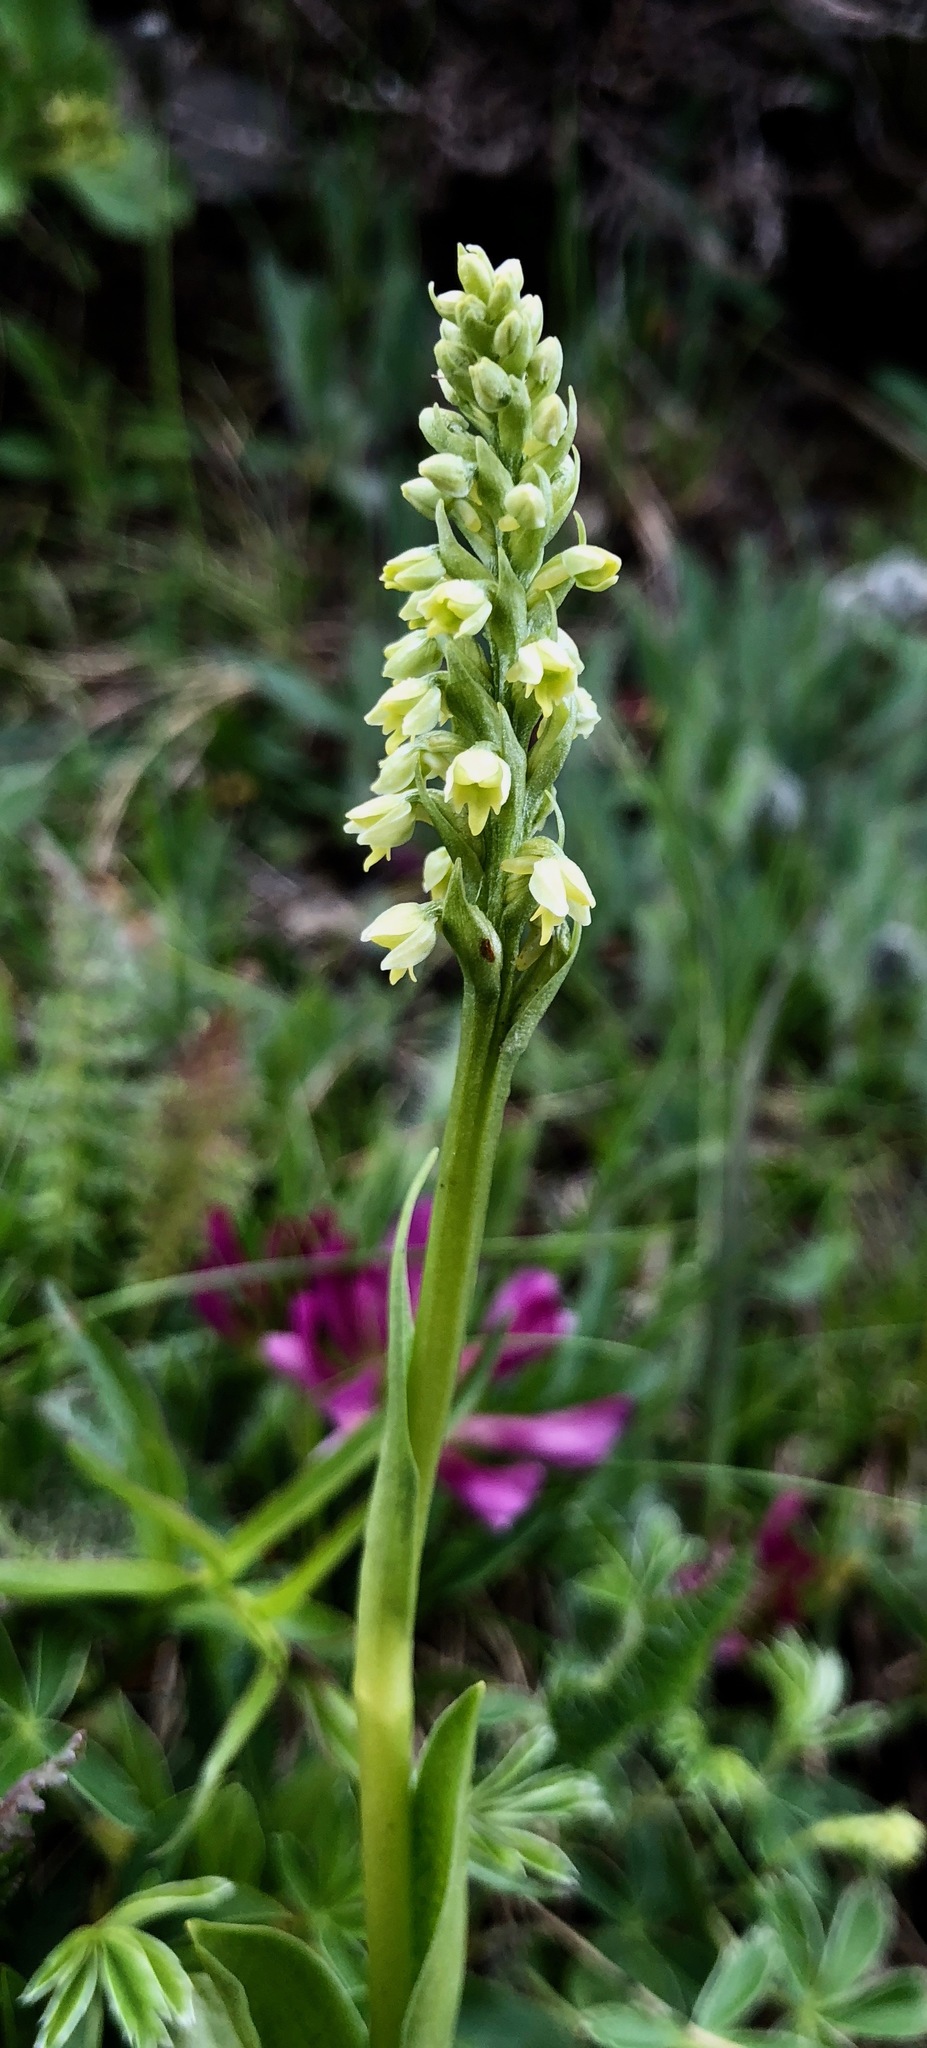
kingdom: Plantae
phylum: Tracheophyta
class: Liliopsida
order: Asparagales
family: Orchidaceae
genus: Pseudorchis
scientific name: Pseudorchis albida
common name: Small-white orchid
